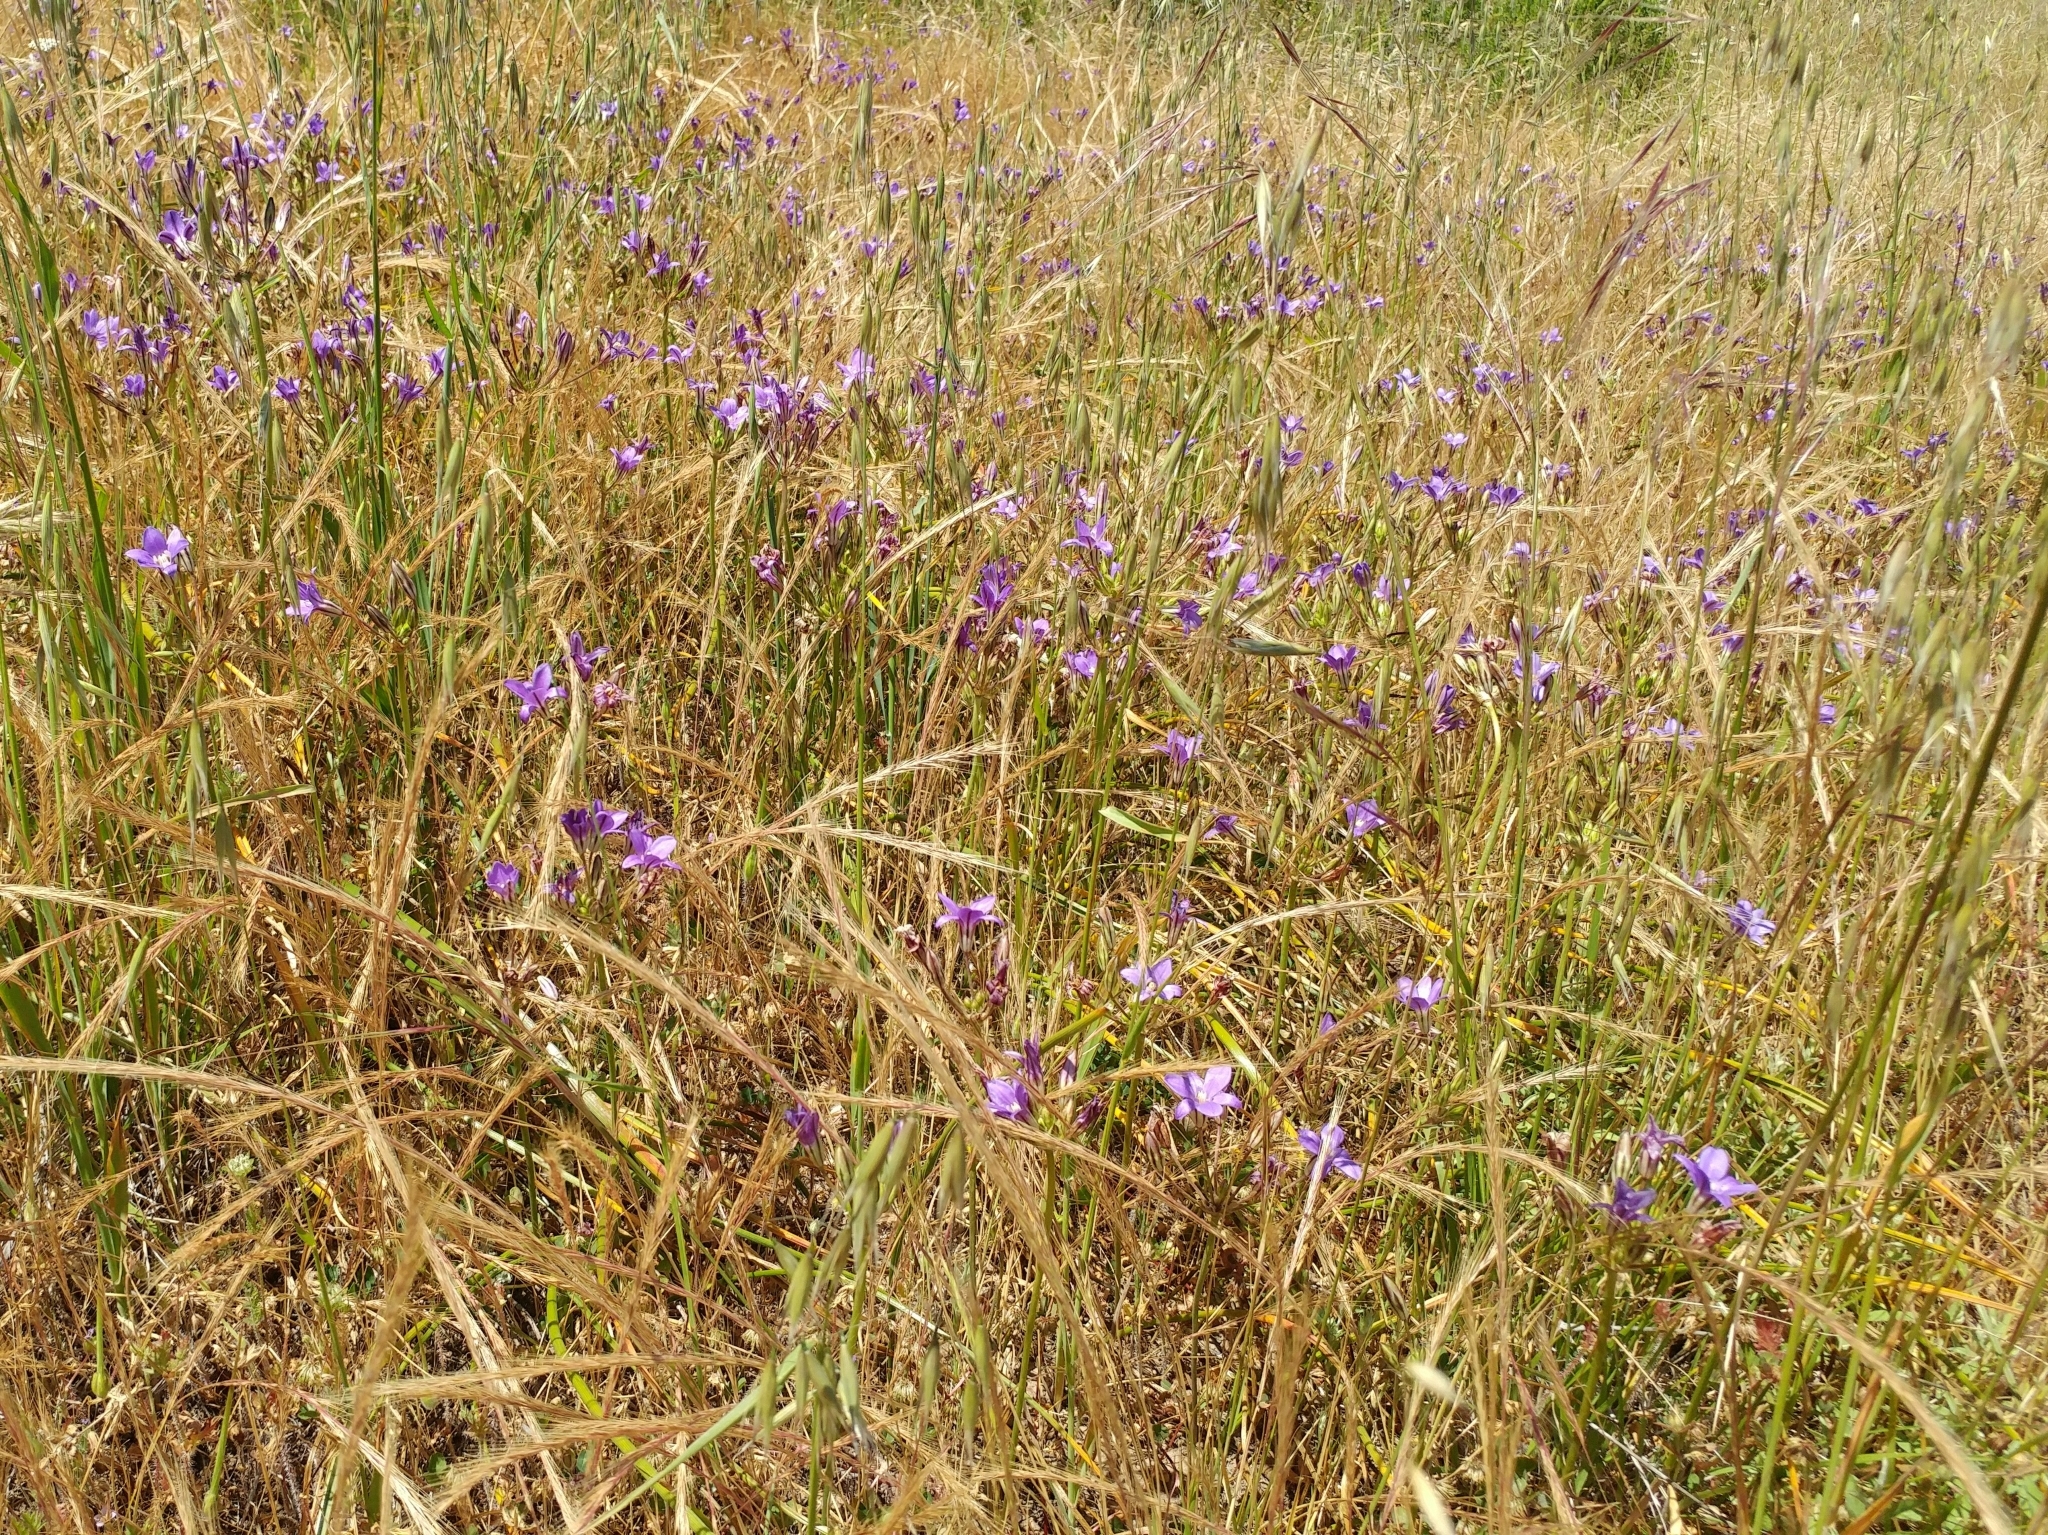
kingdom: Plantae
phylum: Tracheophyta
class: Liliopsida
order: Asparagales
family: Asparagaceae
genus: Brodiaea
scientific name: Brodiaea kinkiensis
